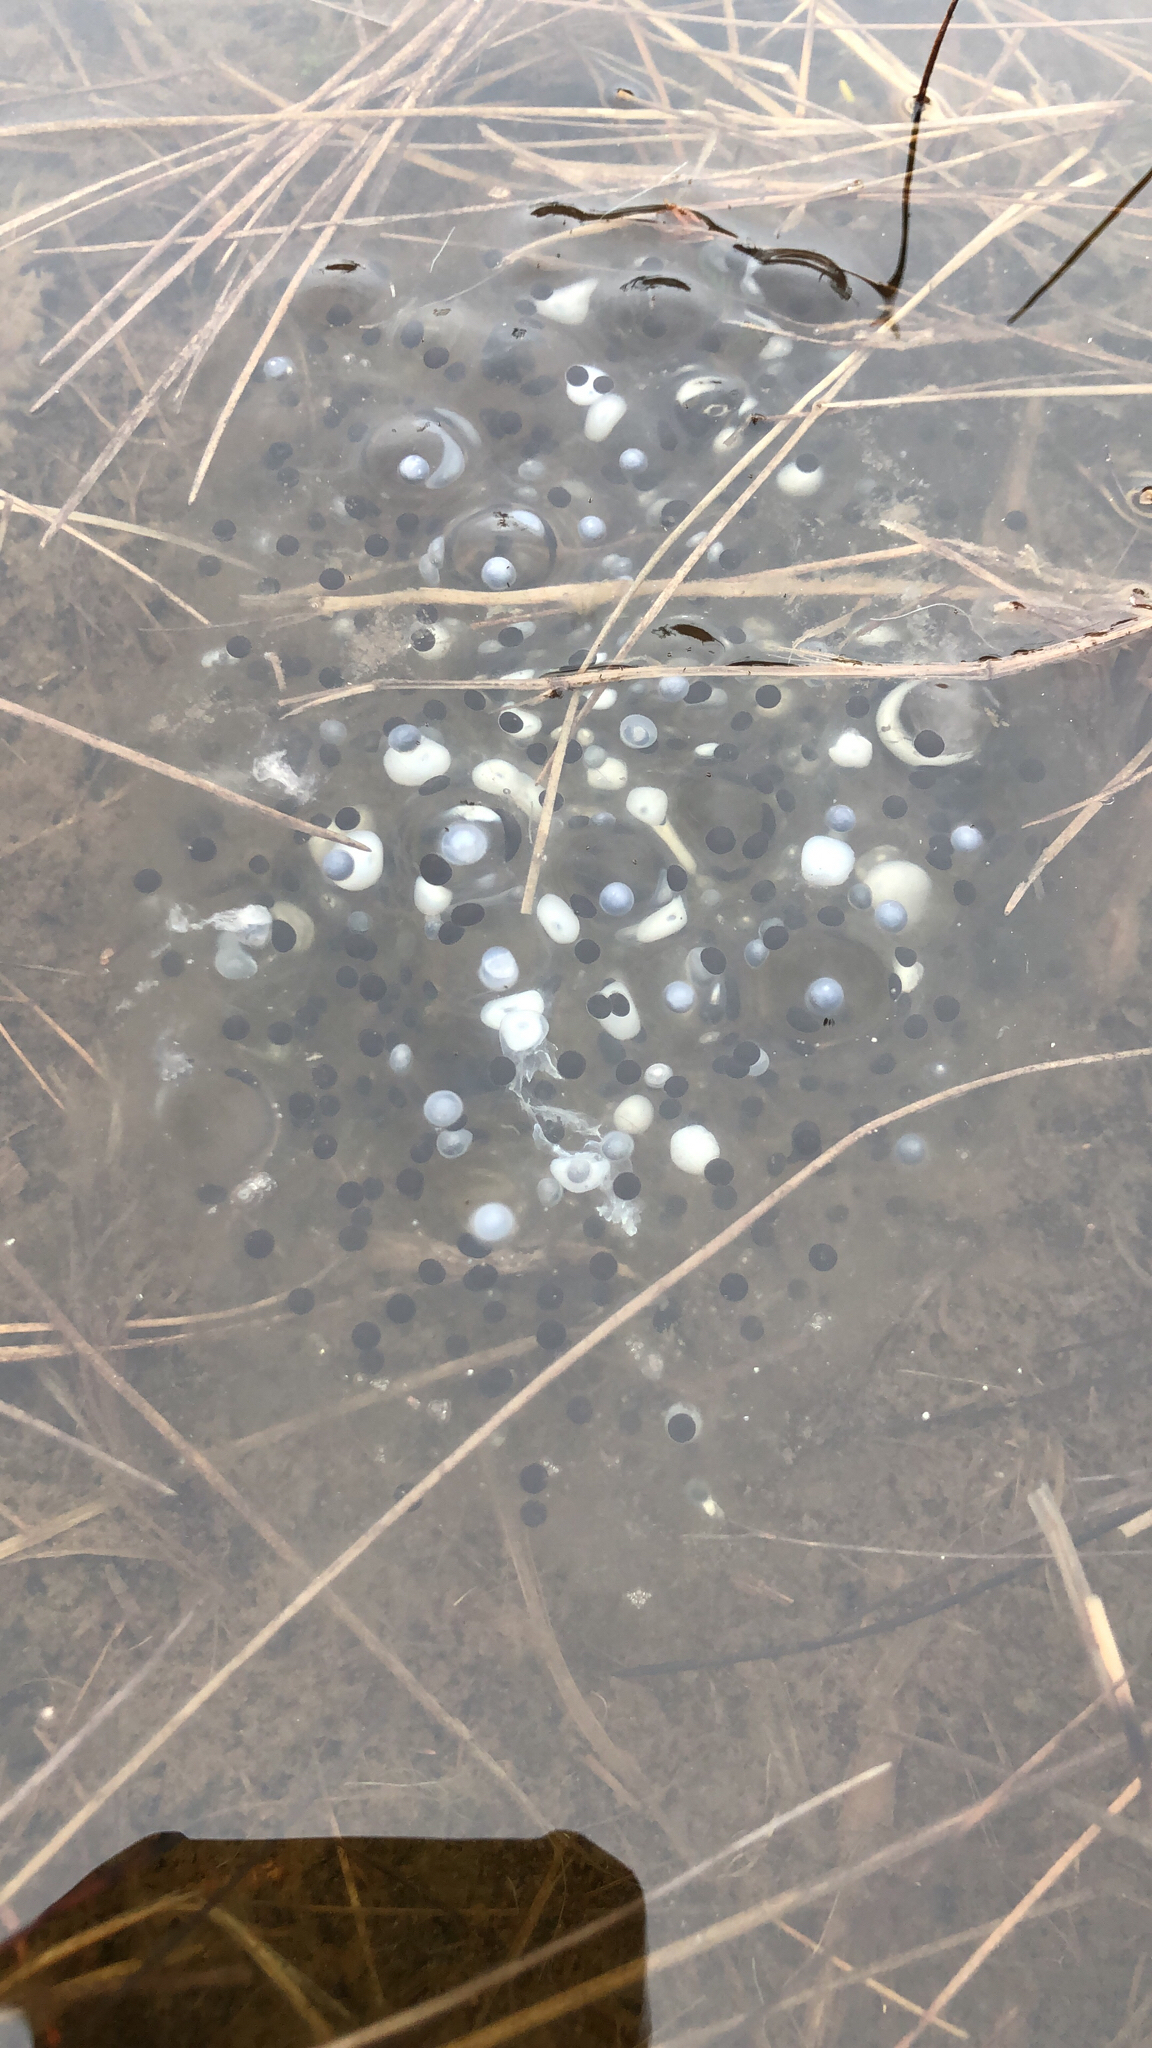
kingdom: Animalia
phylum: Chordata
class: Amphibia
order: Anura
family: Ranidae
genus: Rana
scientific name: Rana luteiventris
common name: Columbia spotted frog
